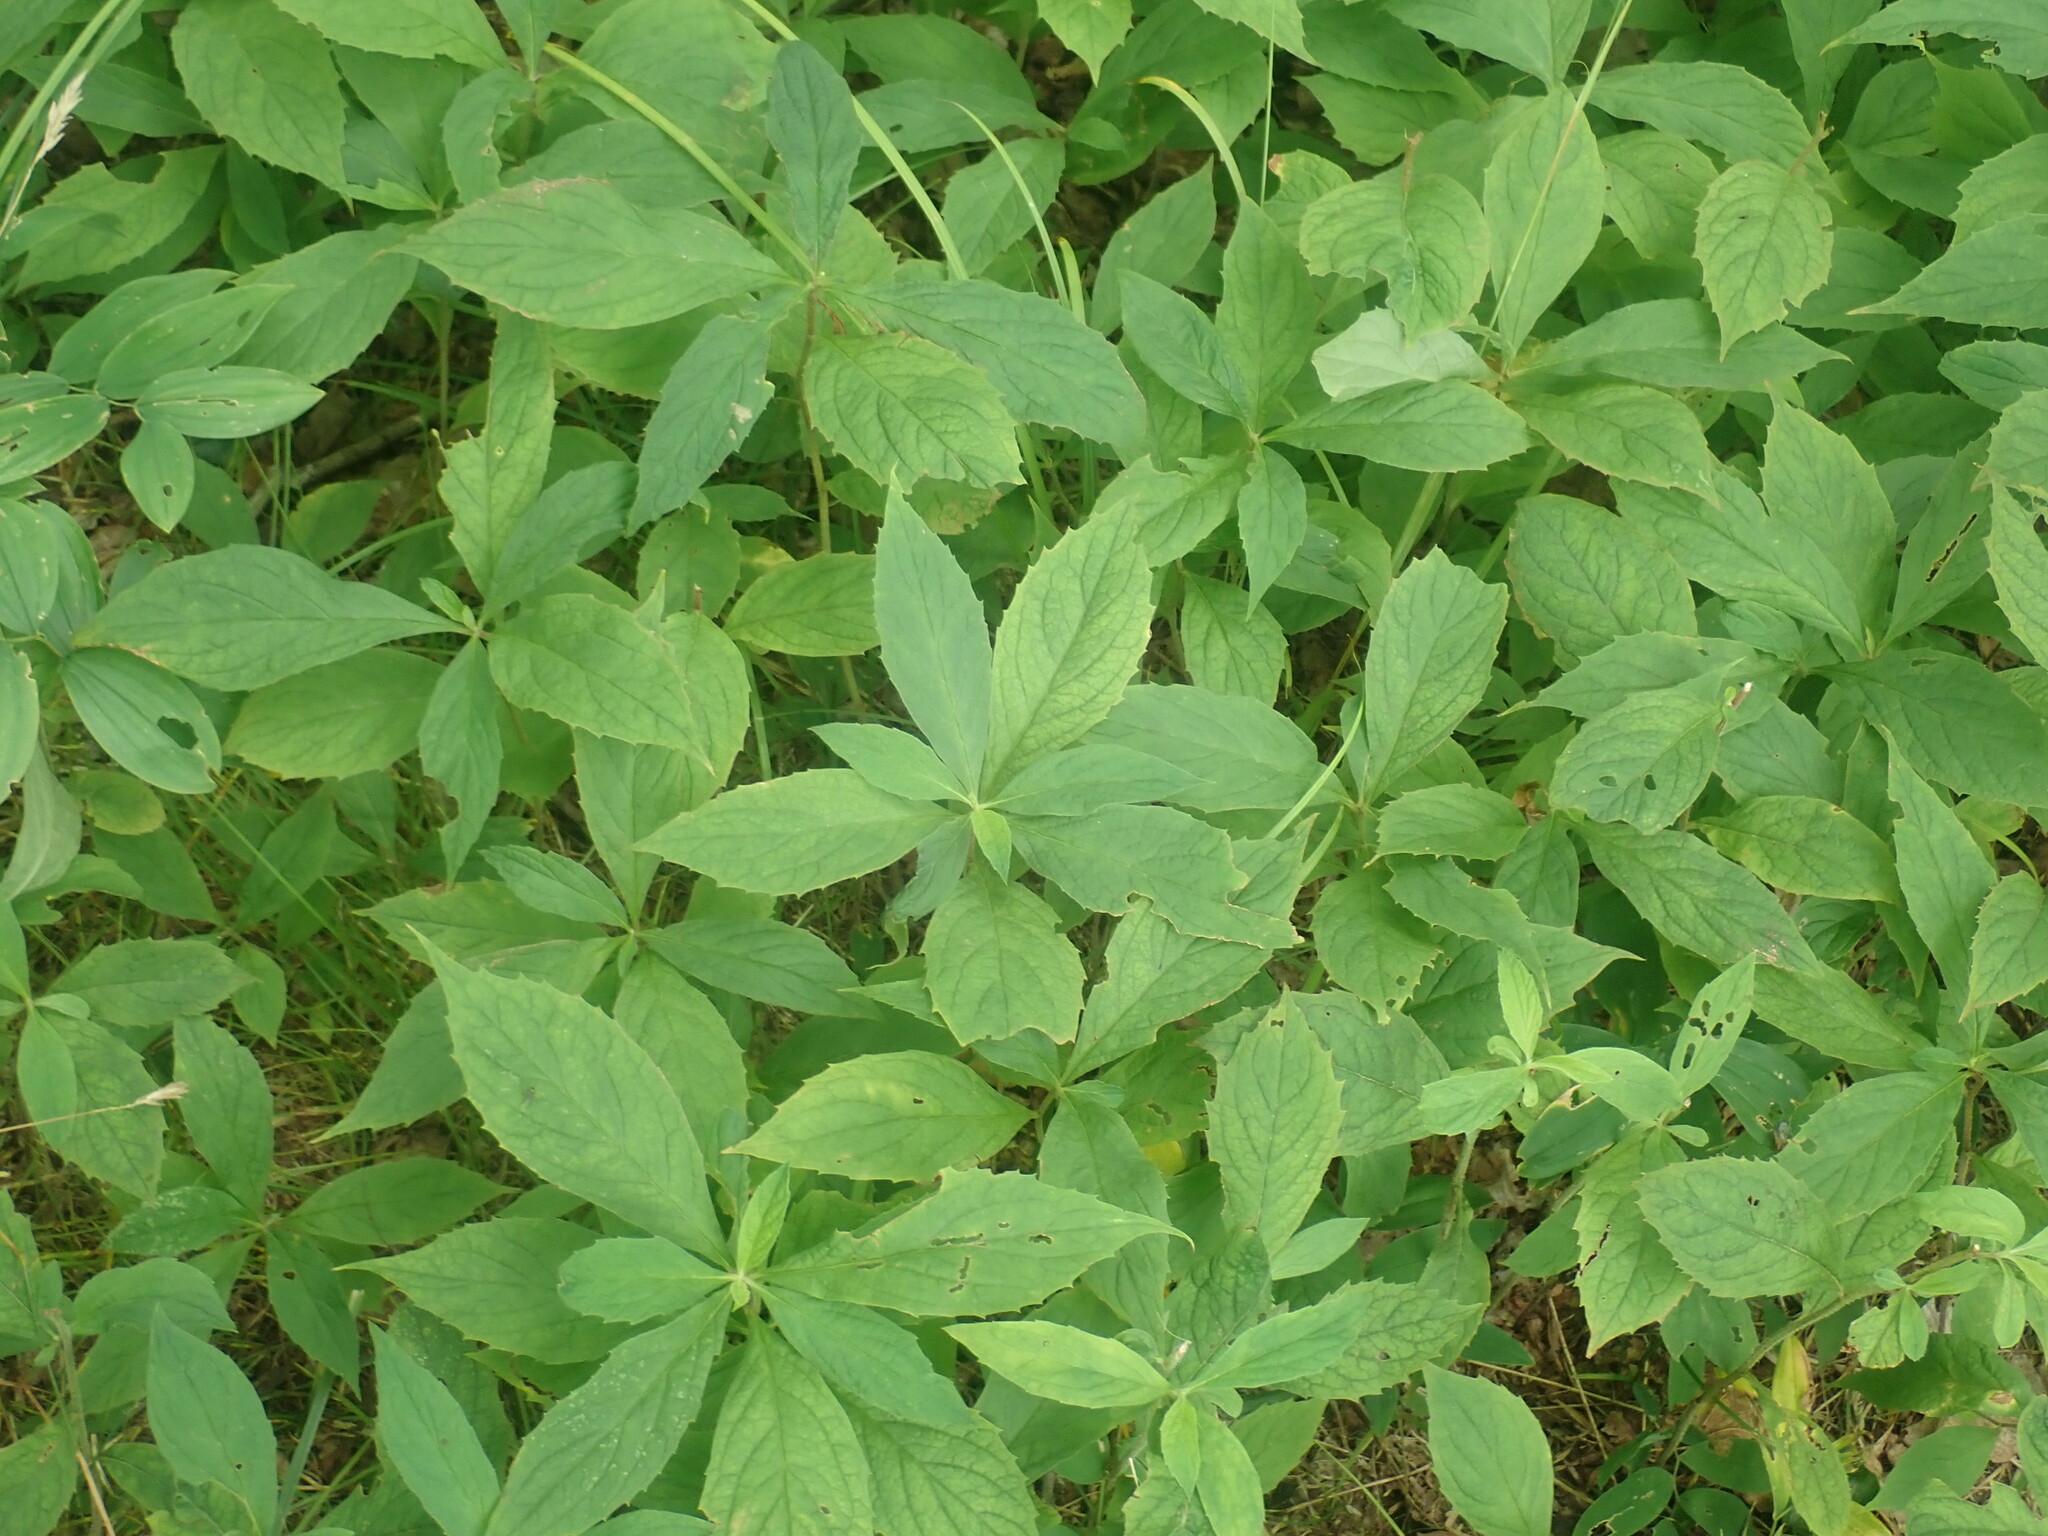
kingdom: Plantae
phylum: Tracheophyta
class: Magnoliopsida
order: Asterales
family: Asteraceae
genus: Oclemena
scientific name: Oclemena acuminata
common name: Mountain aster
